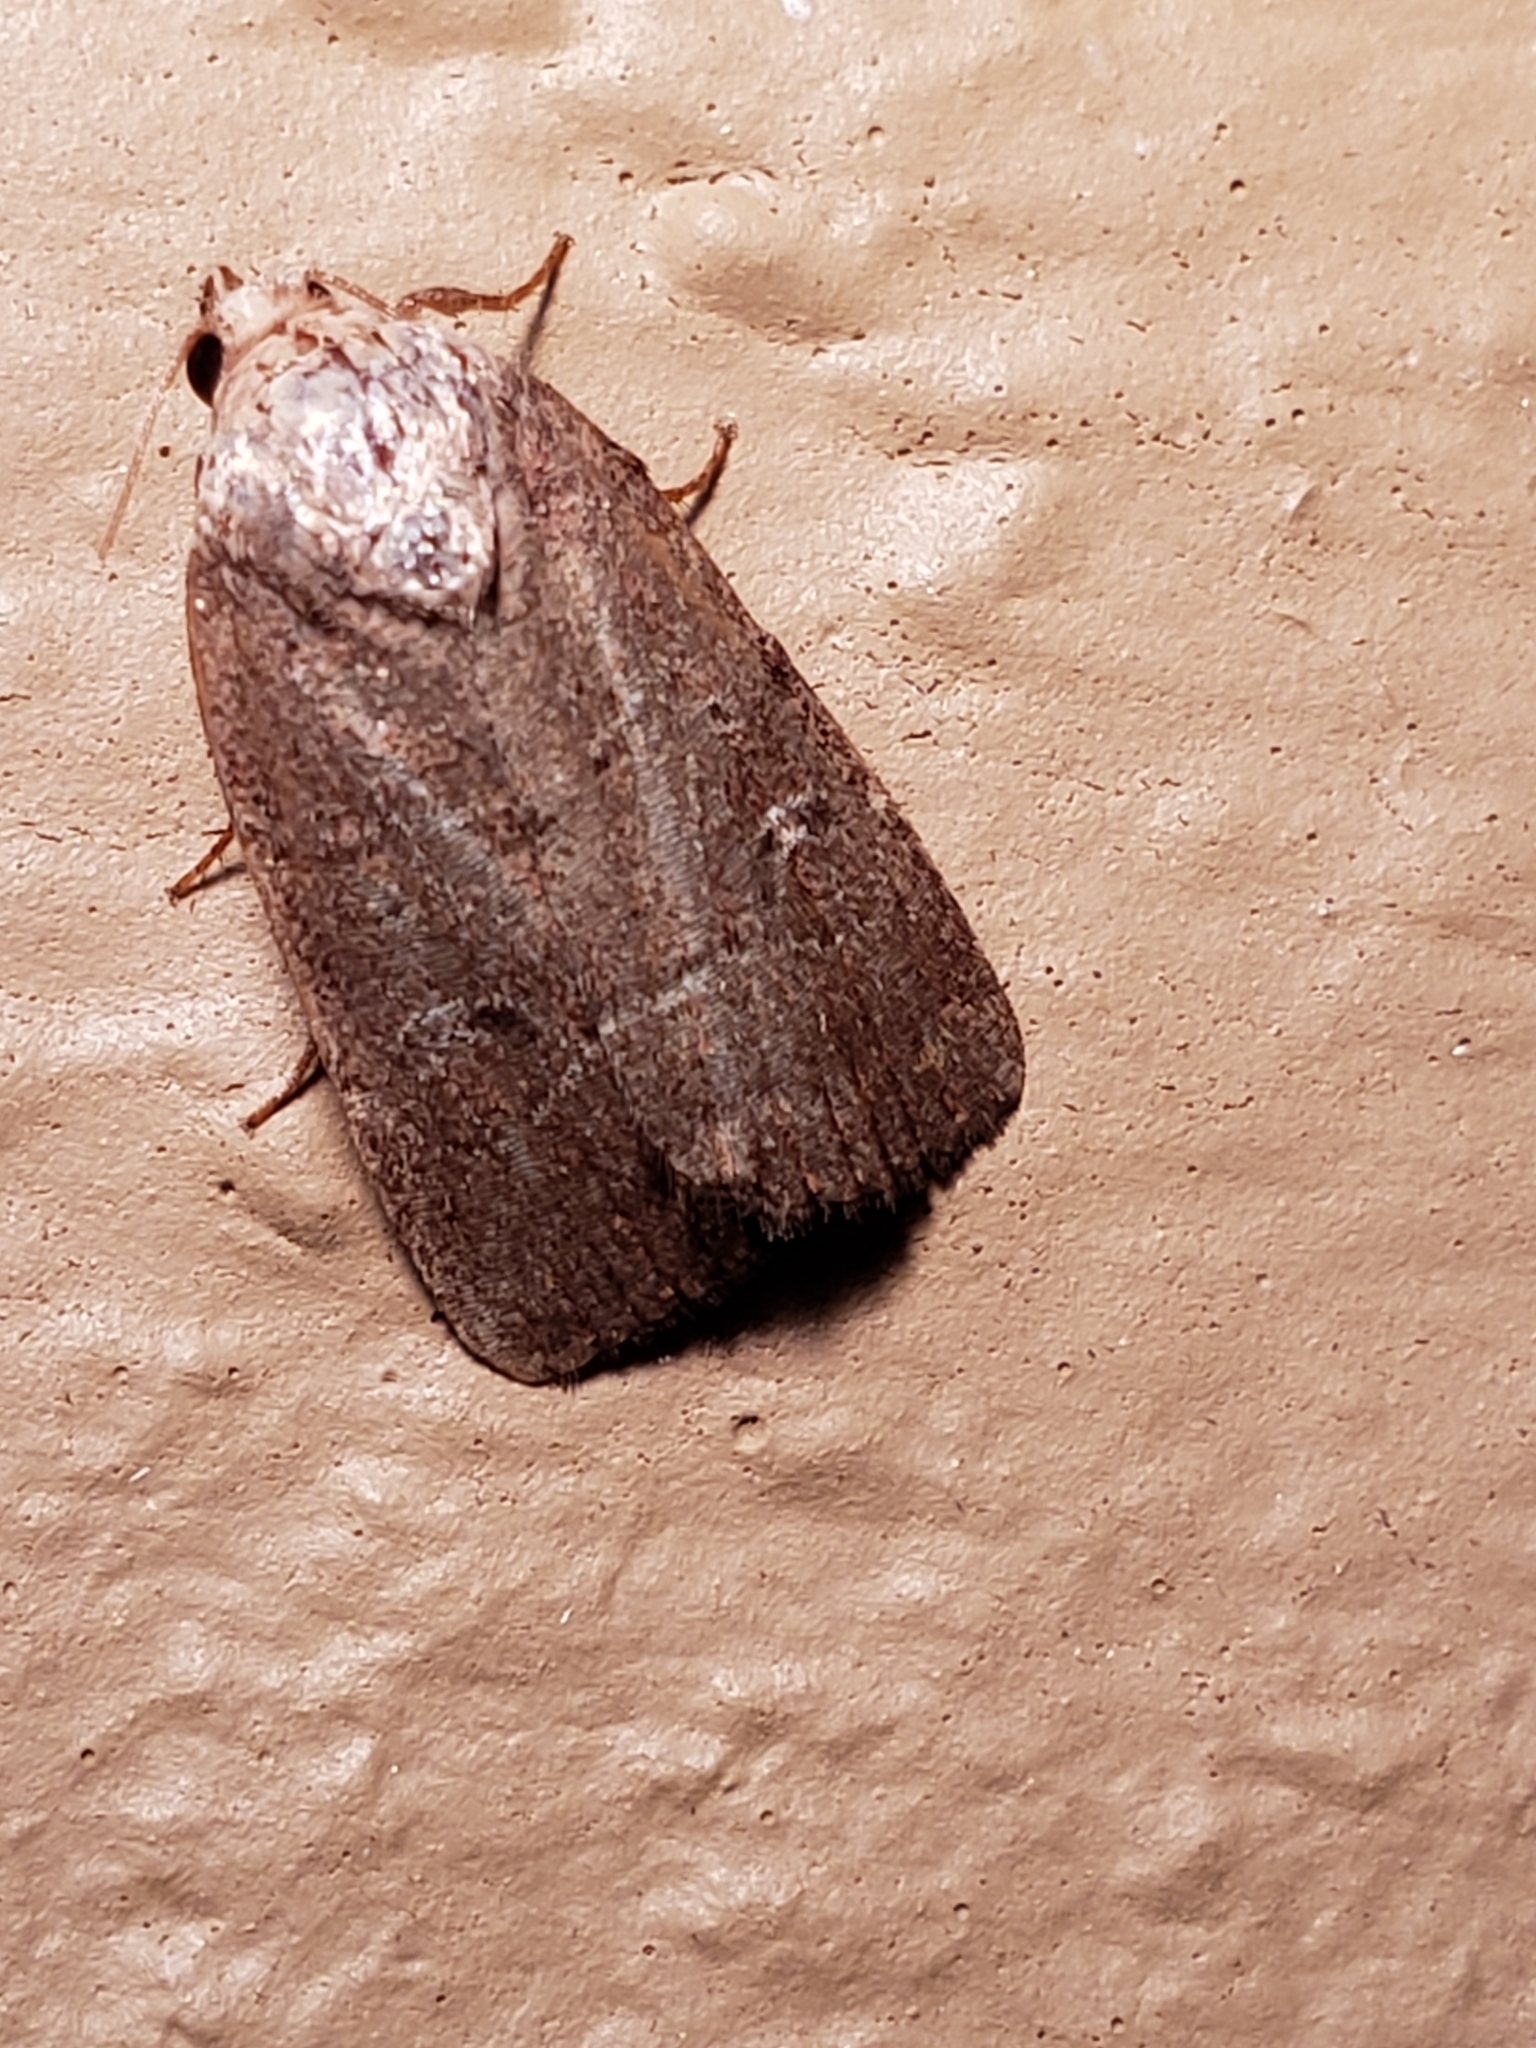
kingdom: Animalia
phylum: Arthropoda
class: Insecta
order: Lepidoptera
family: Noctuidae
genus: Elaphria
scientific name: Elaphria grata
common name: Grateful midget moth
